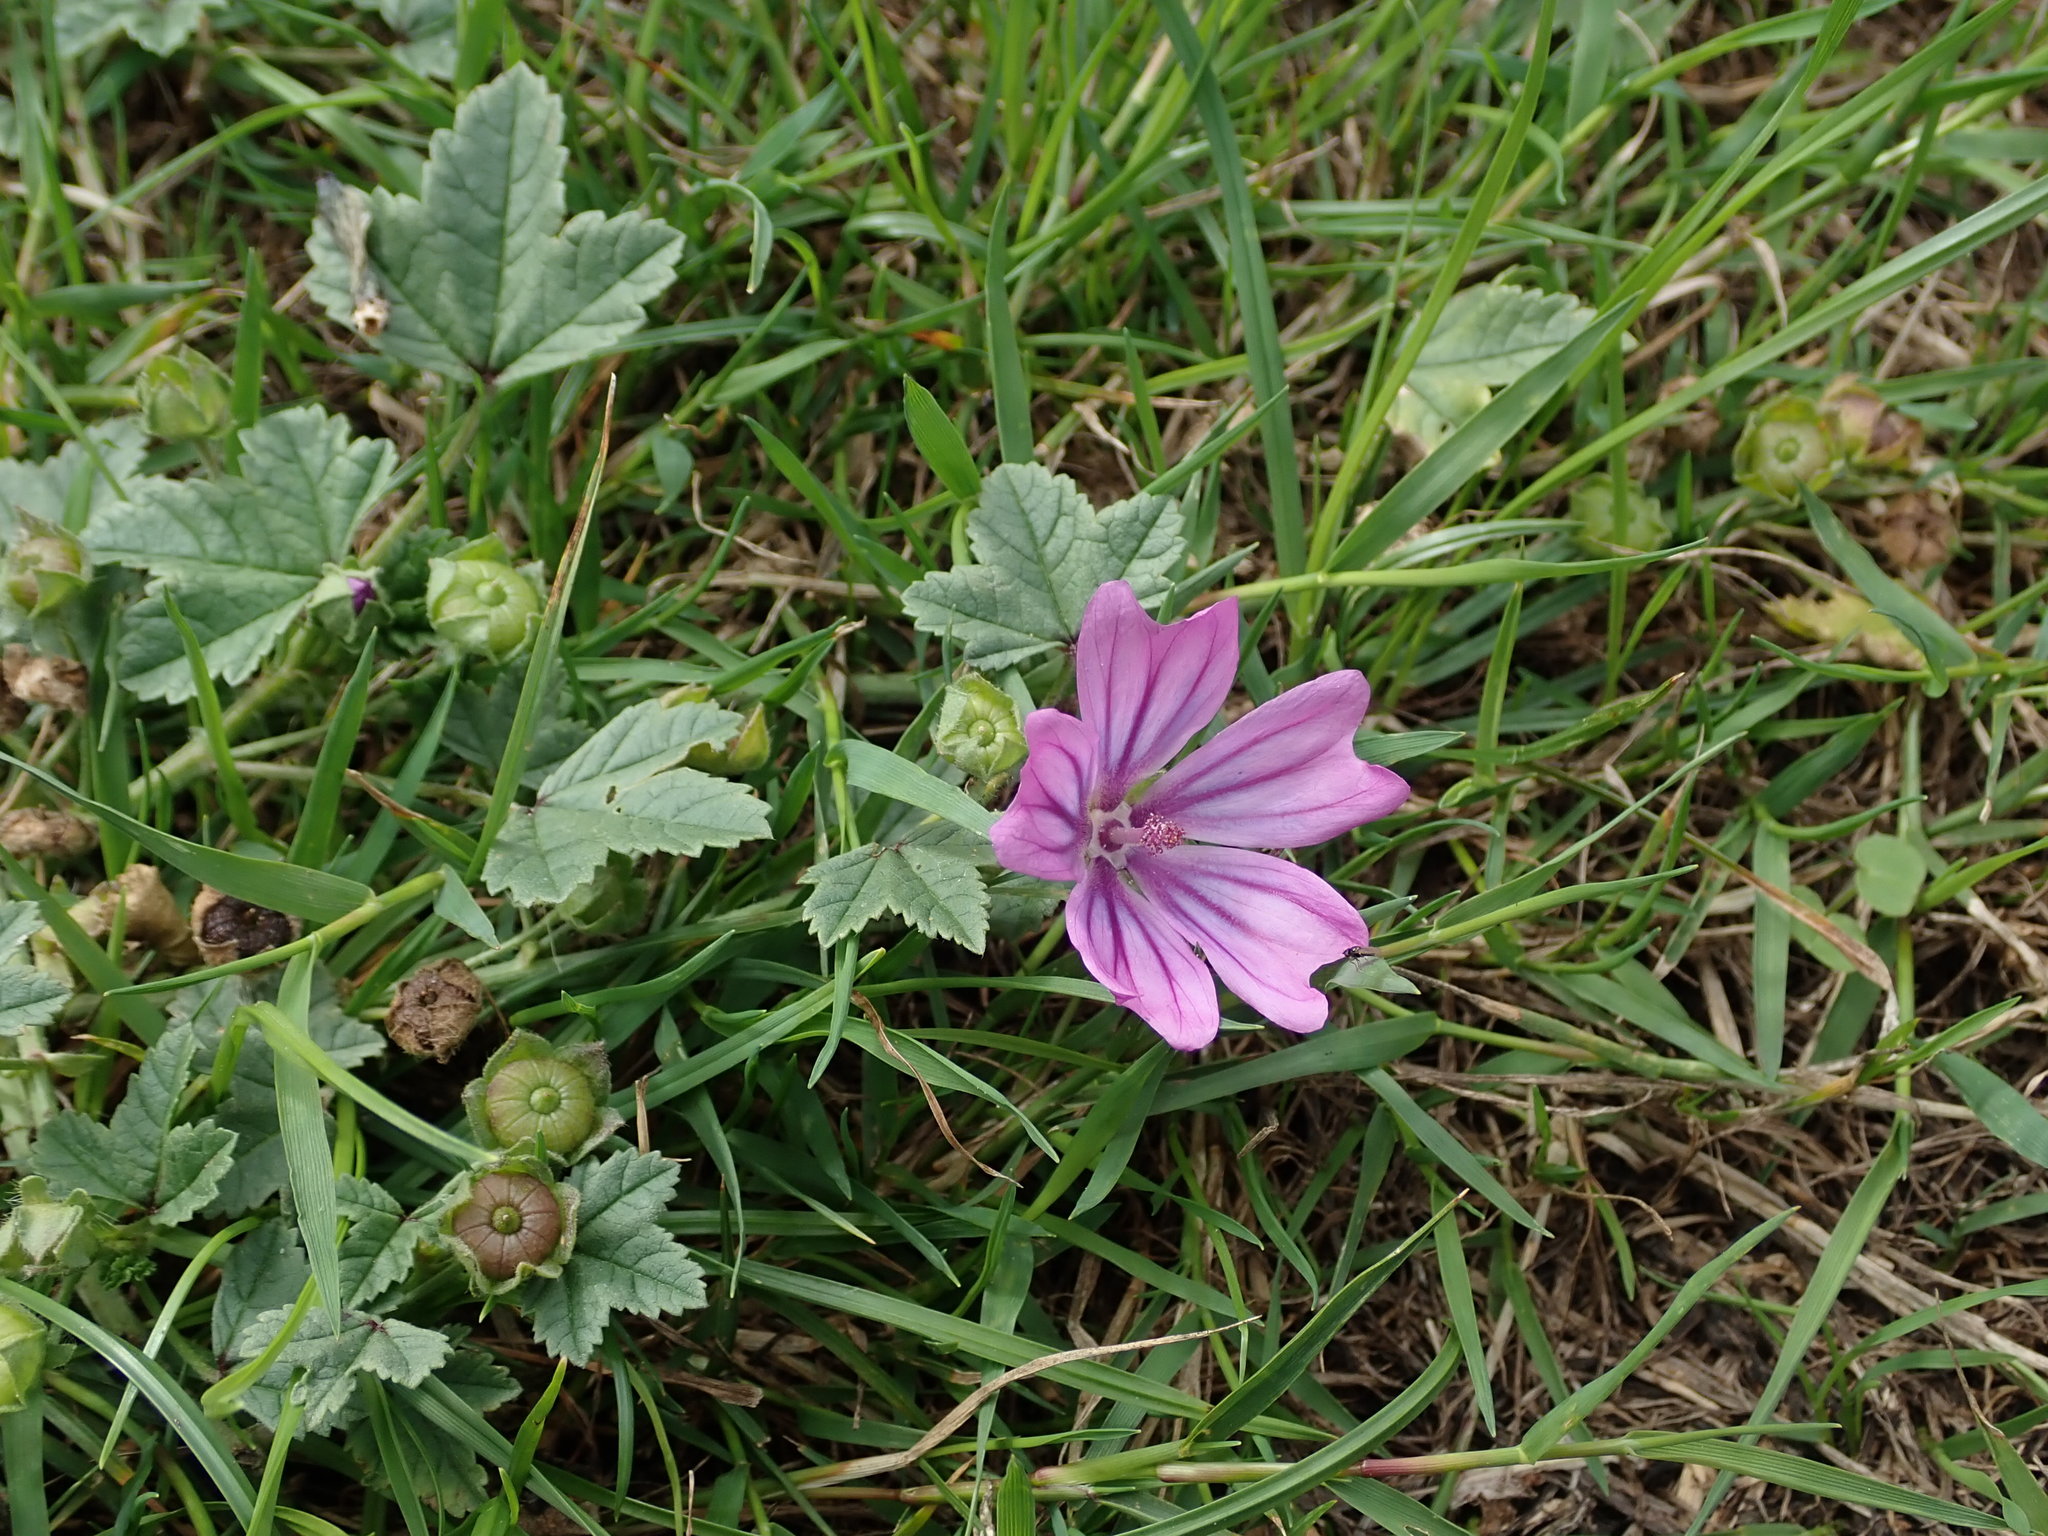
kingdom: Plantae
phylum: Tracheophyta
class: Magnoliopsida
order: Malvales
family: Malvaceae
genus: Malva
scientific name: Malva sylvestris
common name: Common mallow
